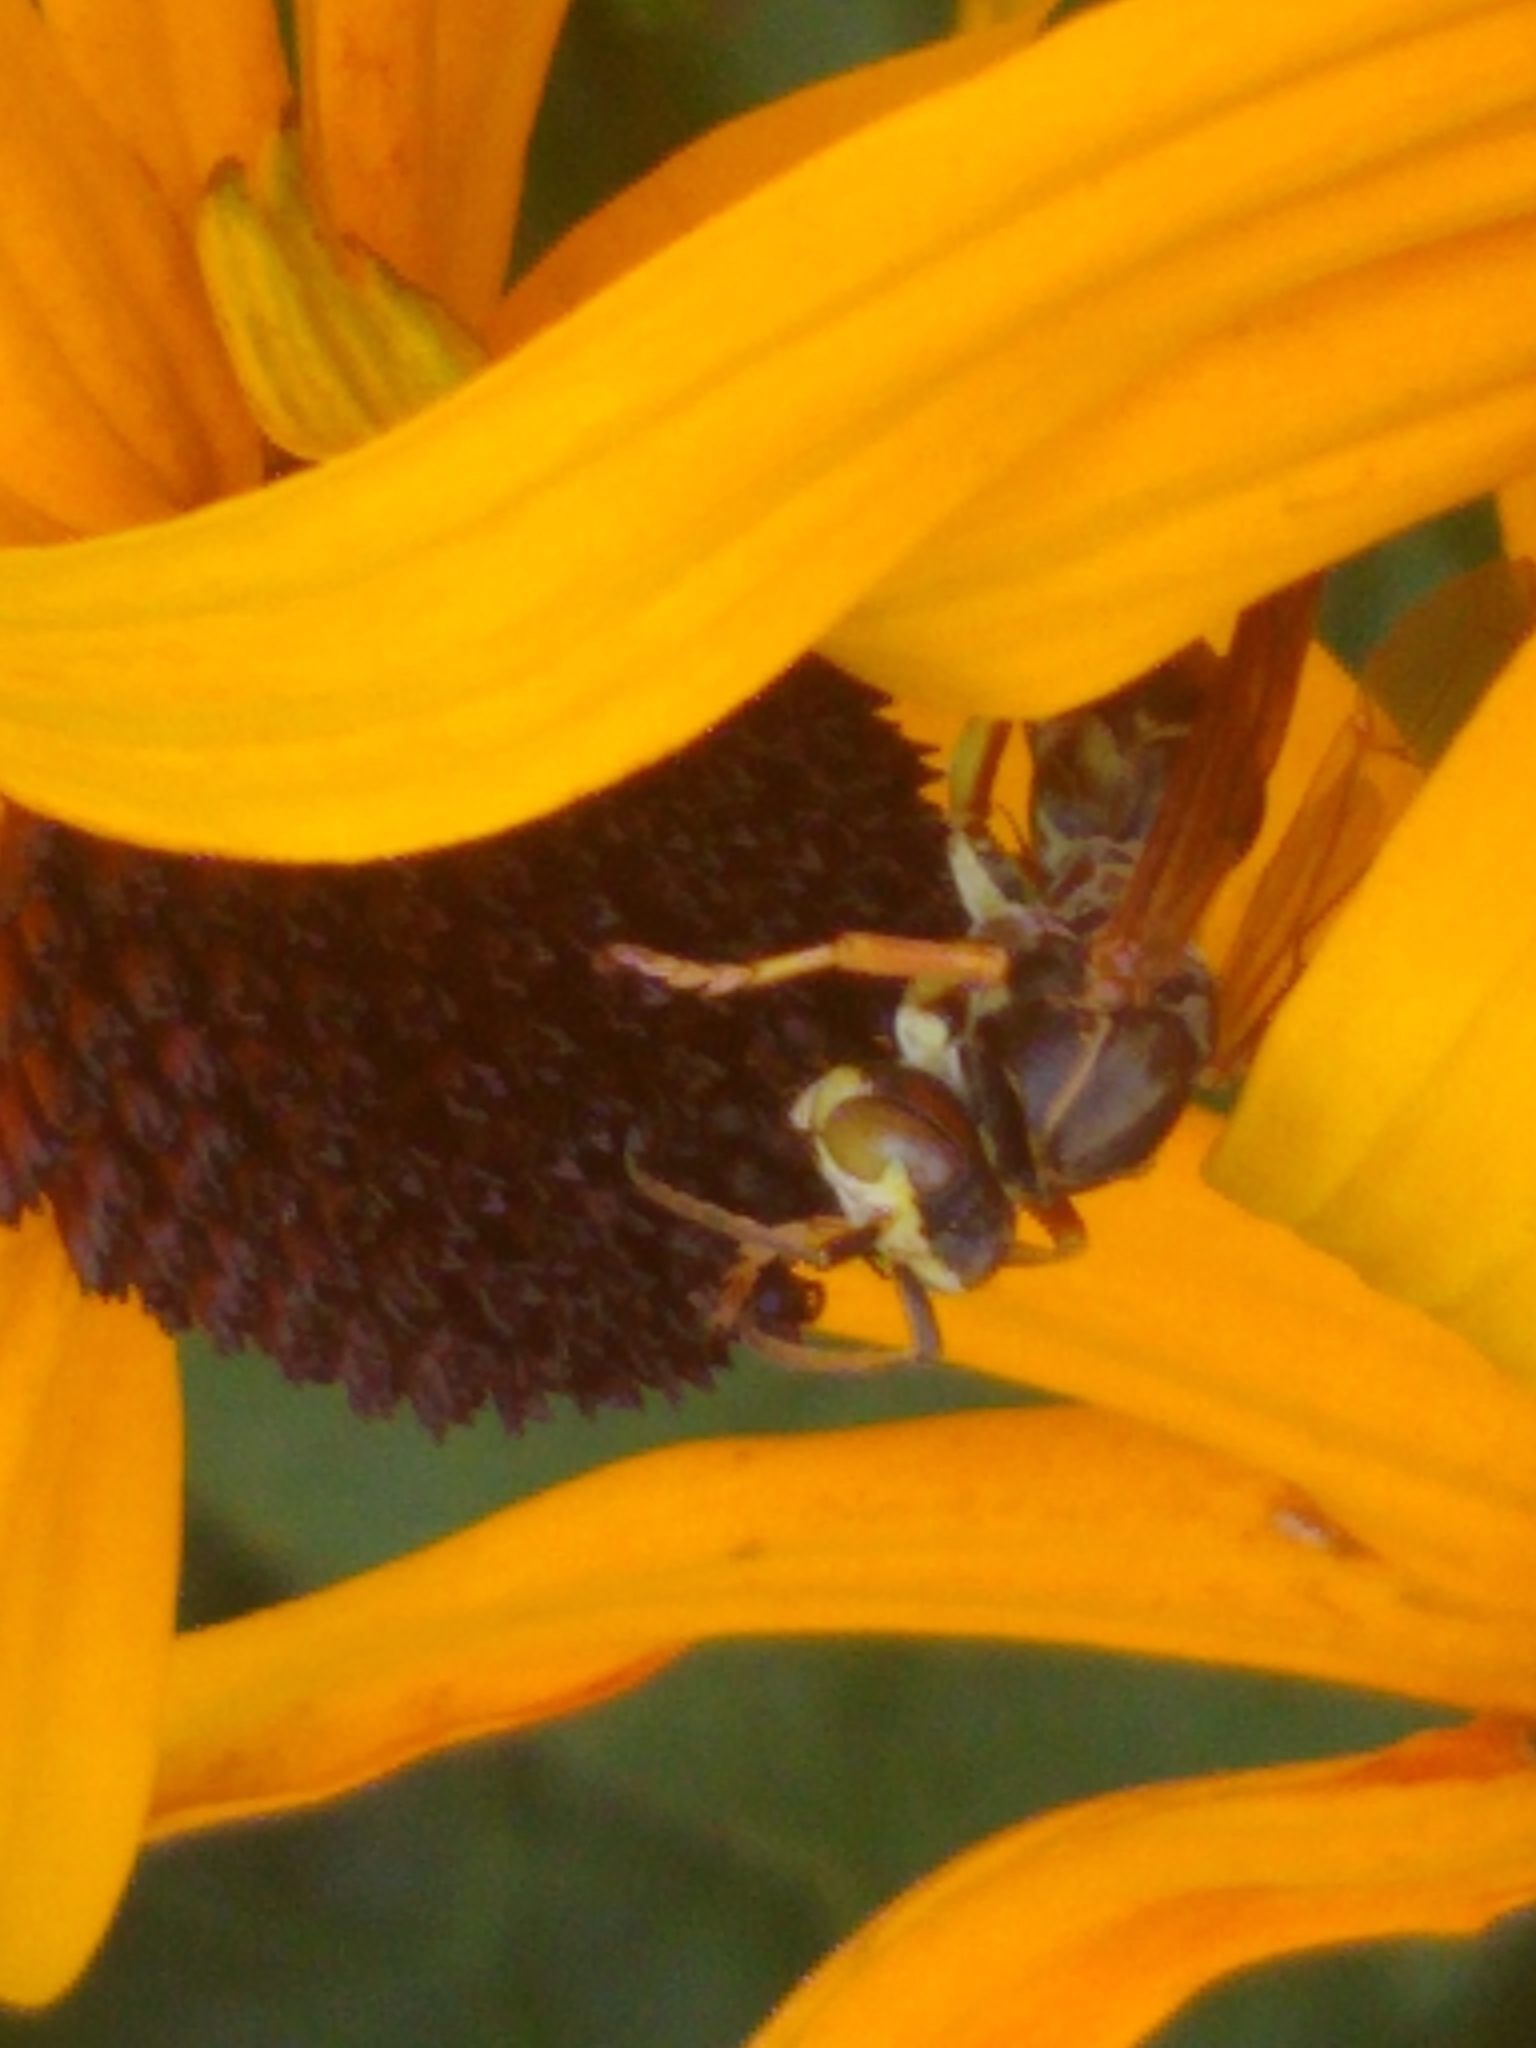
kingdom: Animalia
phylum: Arthropoda
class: Insecta
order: Hymenoptera
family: Eumenidae
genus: Polistes
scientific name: Polistes fuscatus
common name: Dark paper wasp
